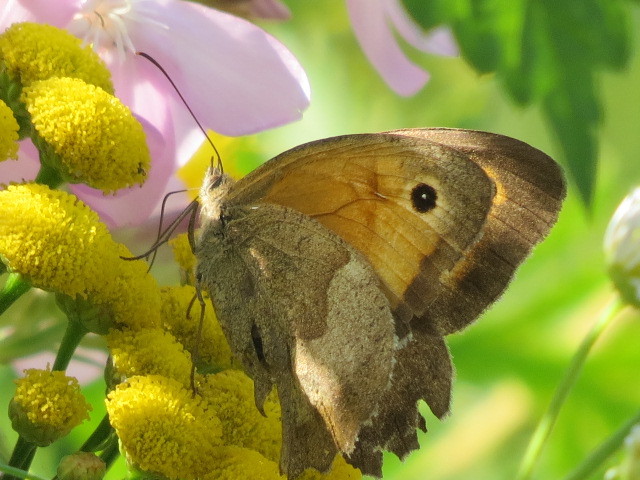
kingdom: Animalia
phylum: Arthropoda
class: Insecta
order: Lepidoptera
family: Nymphalidae
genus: Maniola
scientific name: Maniola jurtina
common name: Meadow brown
